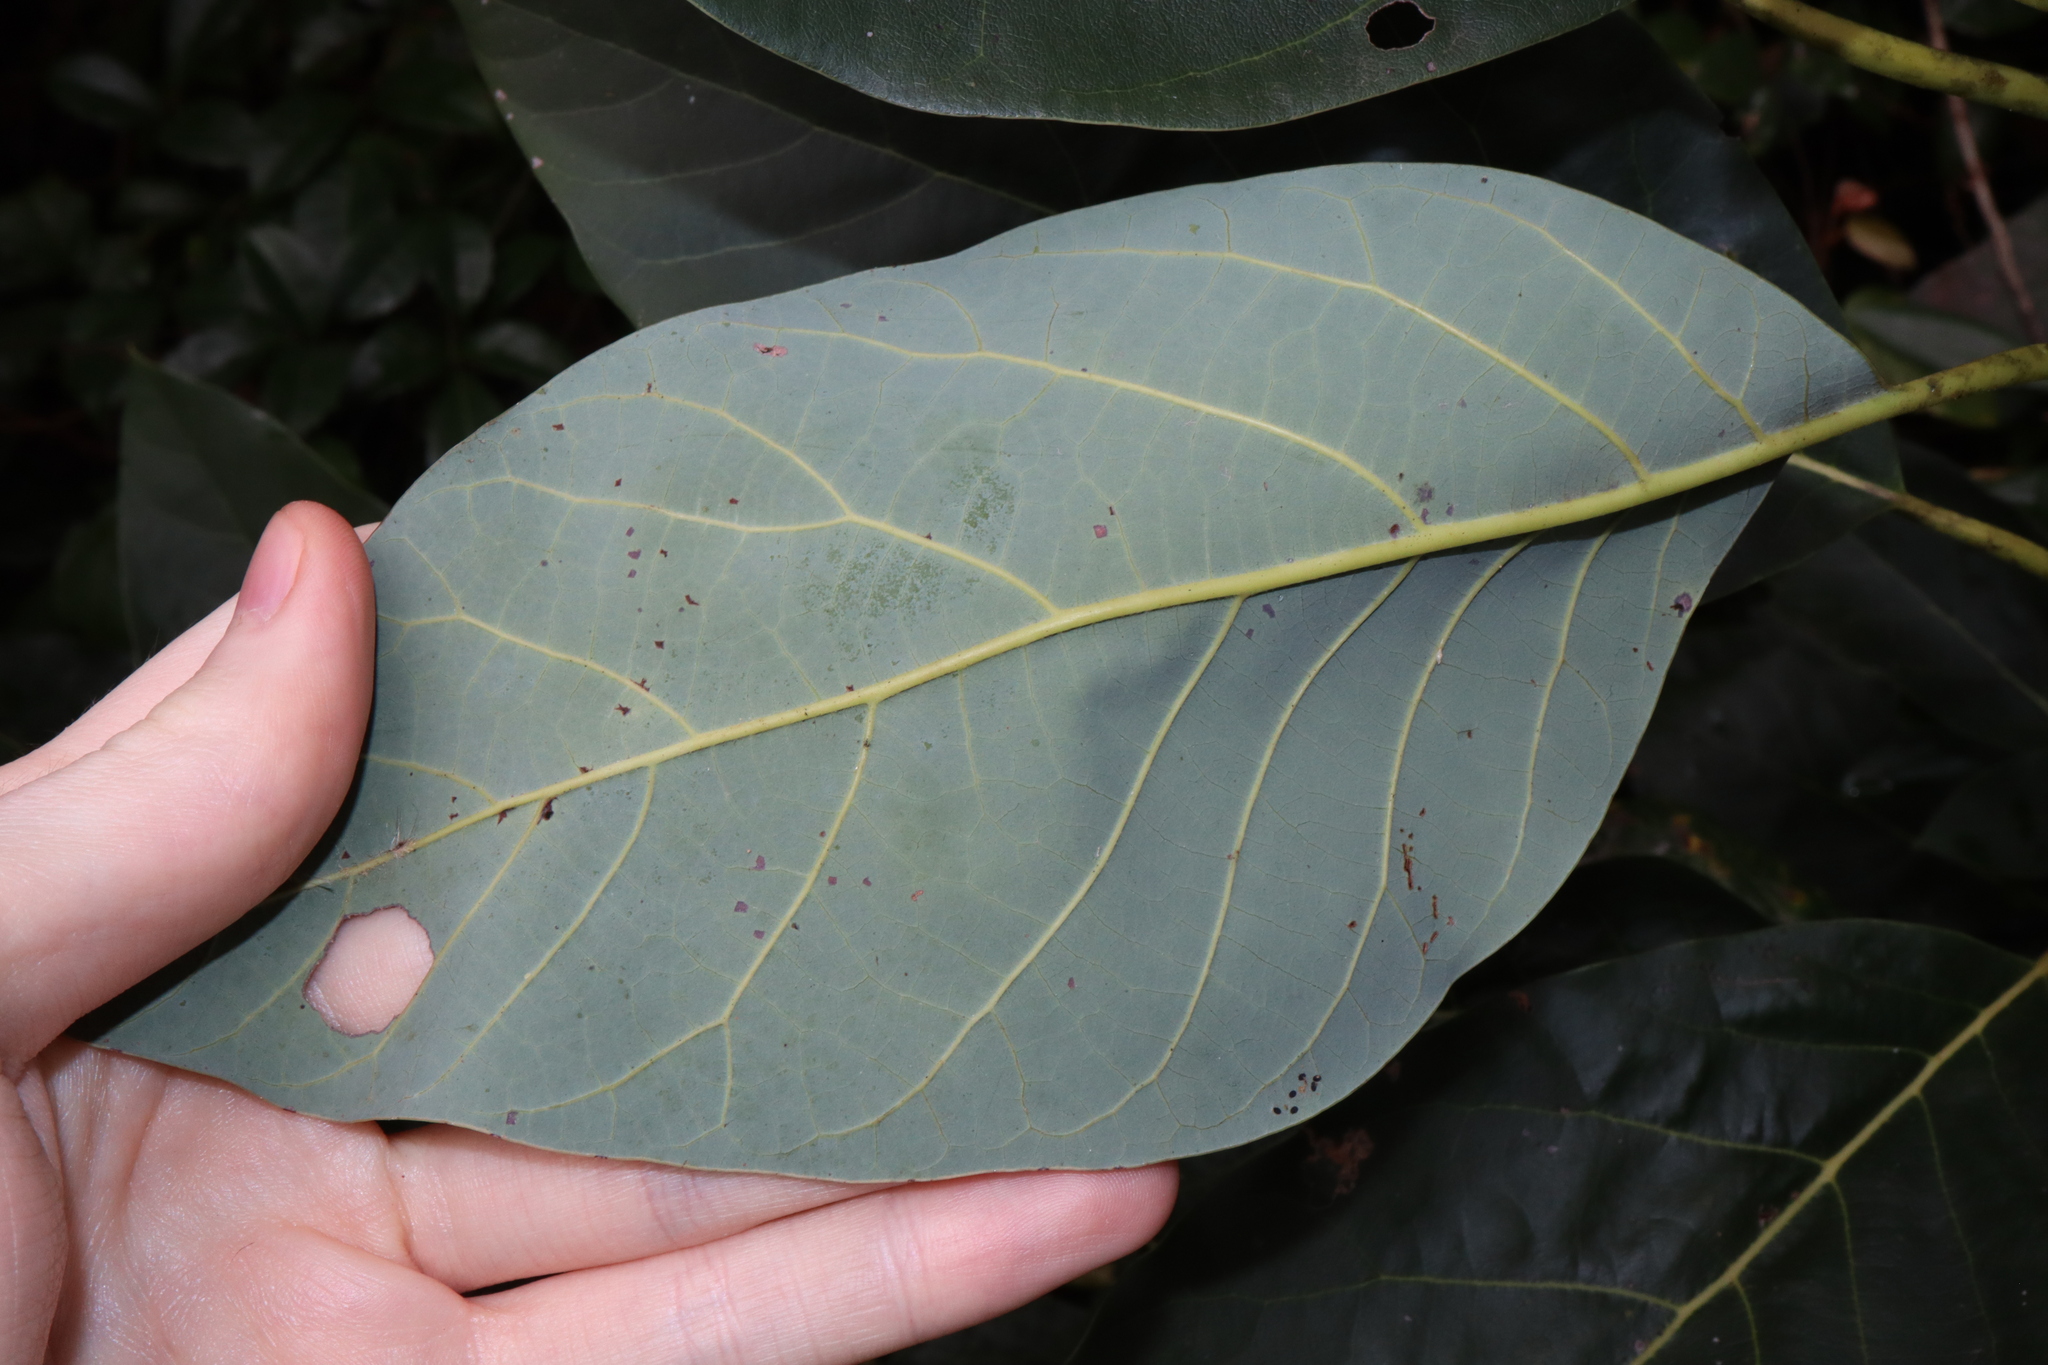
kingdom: Plantae
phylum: Tracheophyta
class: Magnoliopsida
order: Laurales
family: Lauraceae
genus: Persea
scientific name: Persea americana
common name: Avocado
